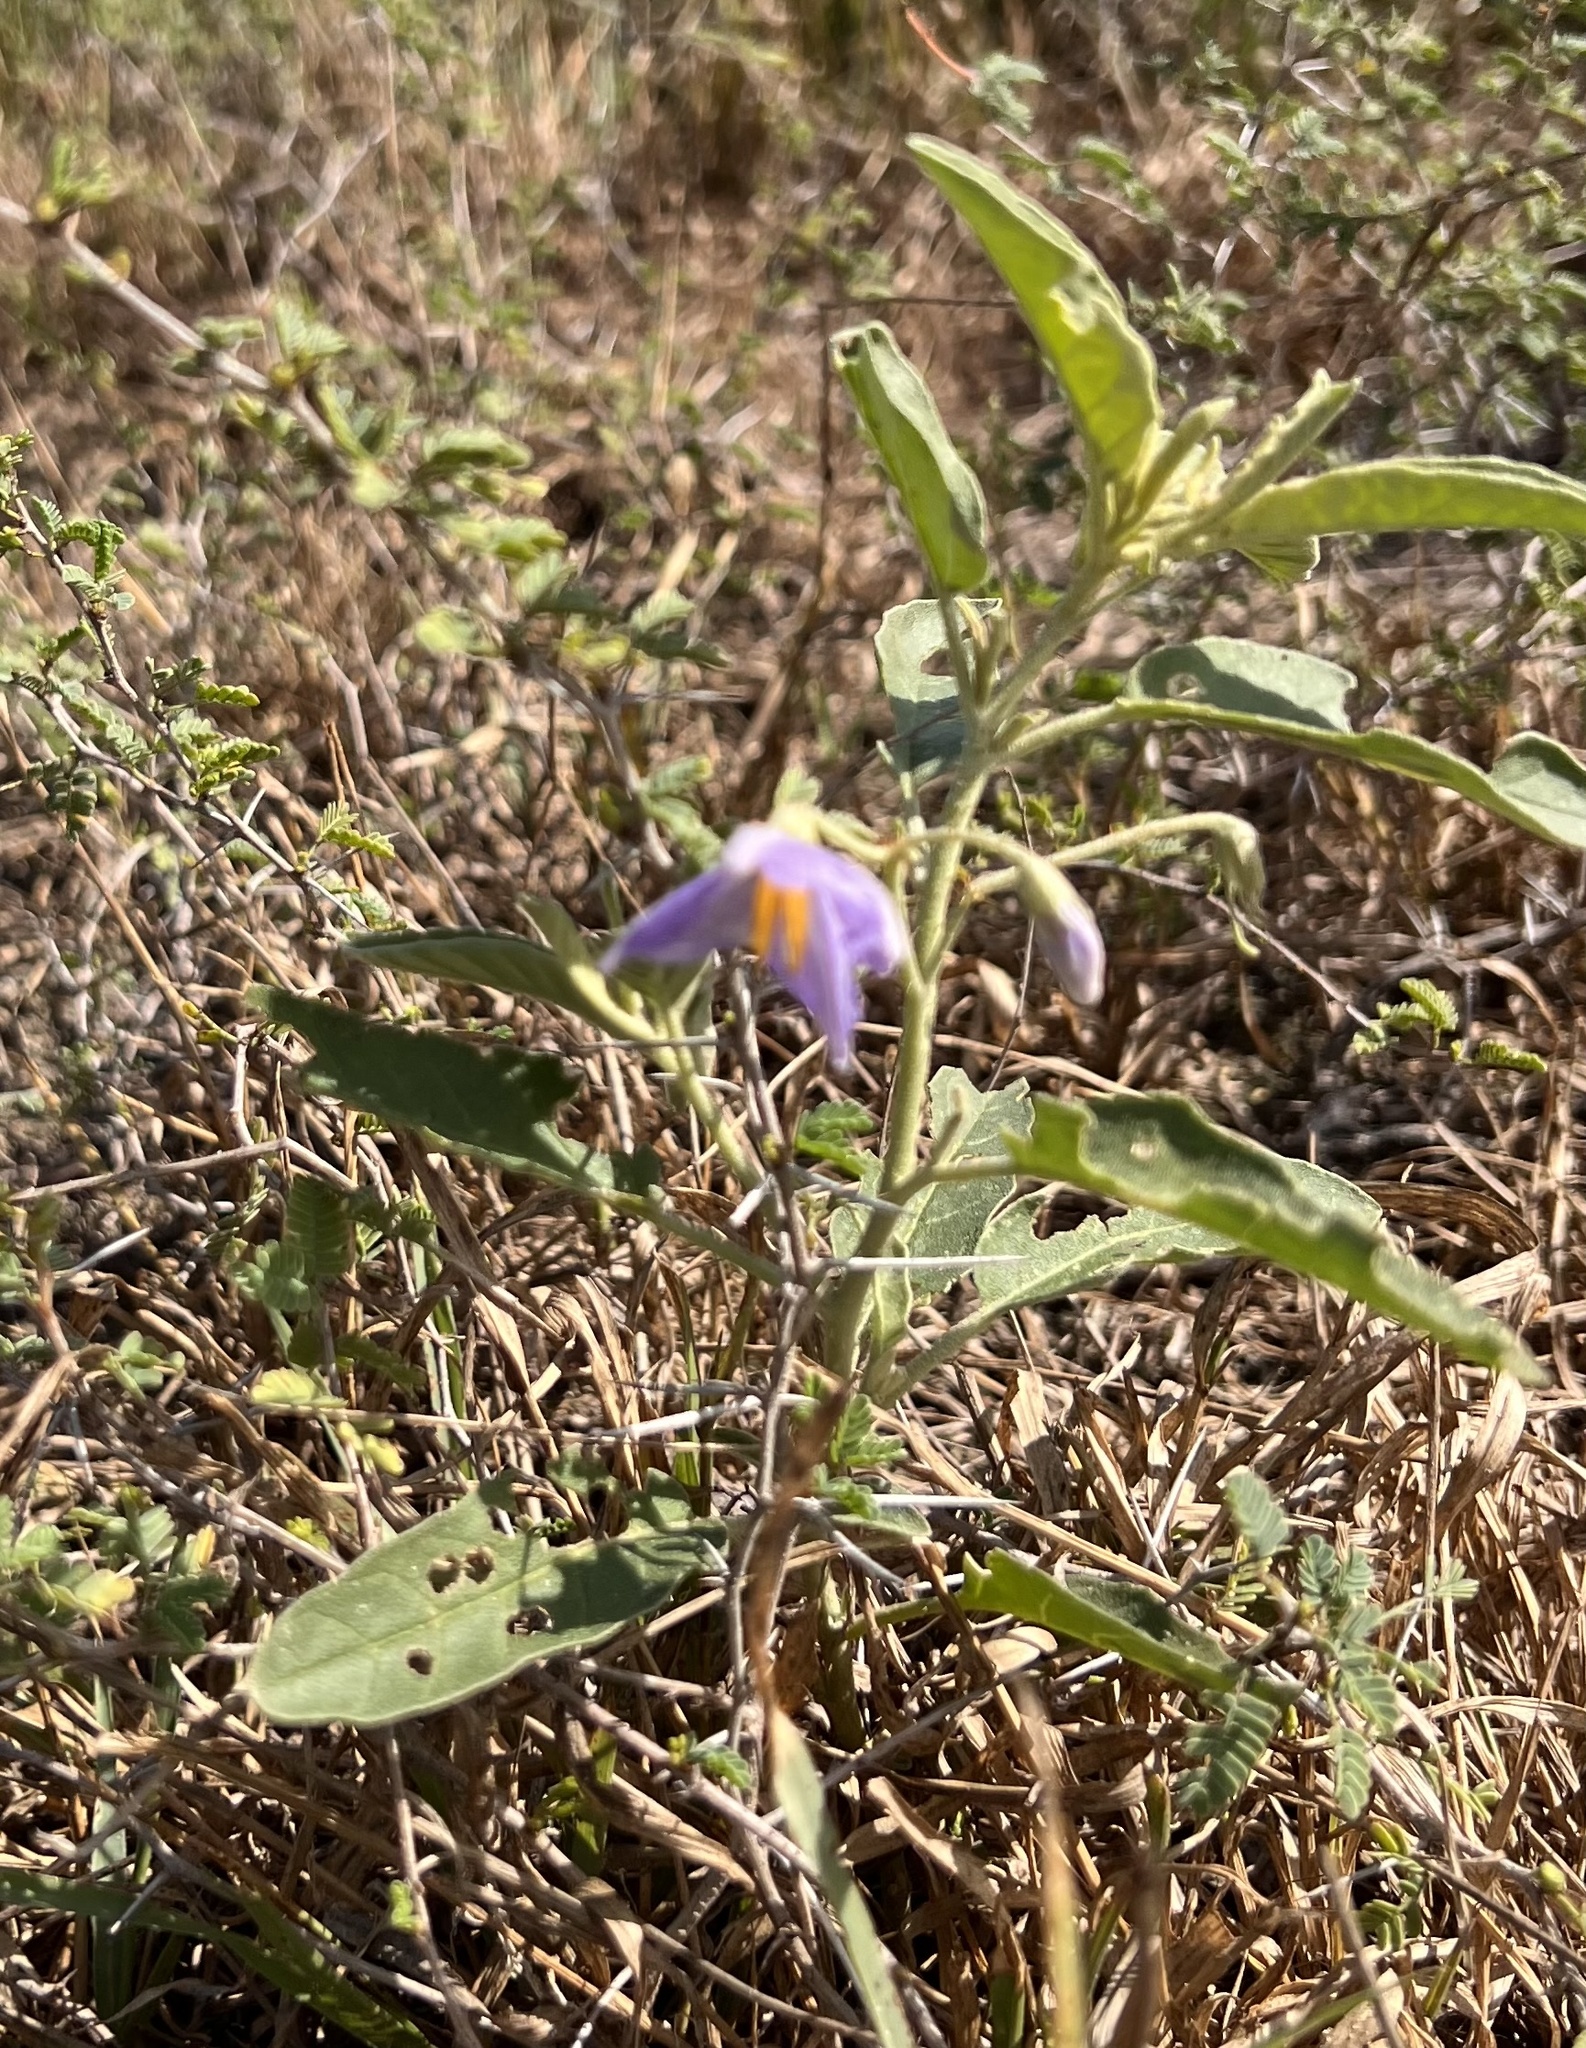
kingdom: Plantae
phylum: Tracheophyta
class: Magnoliopsida
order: Solanales
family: Solanaceae
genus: Solanum
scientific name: Solanum elaeagnifolium
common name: Silverleaf nightshade
